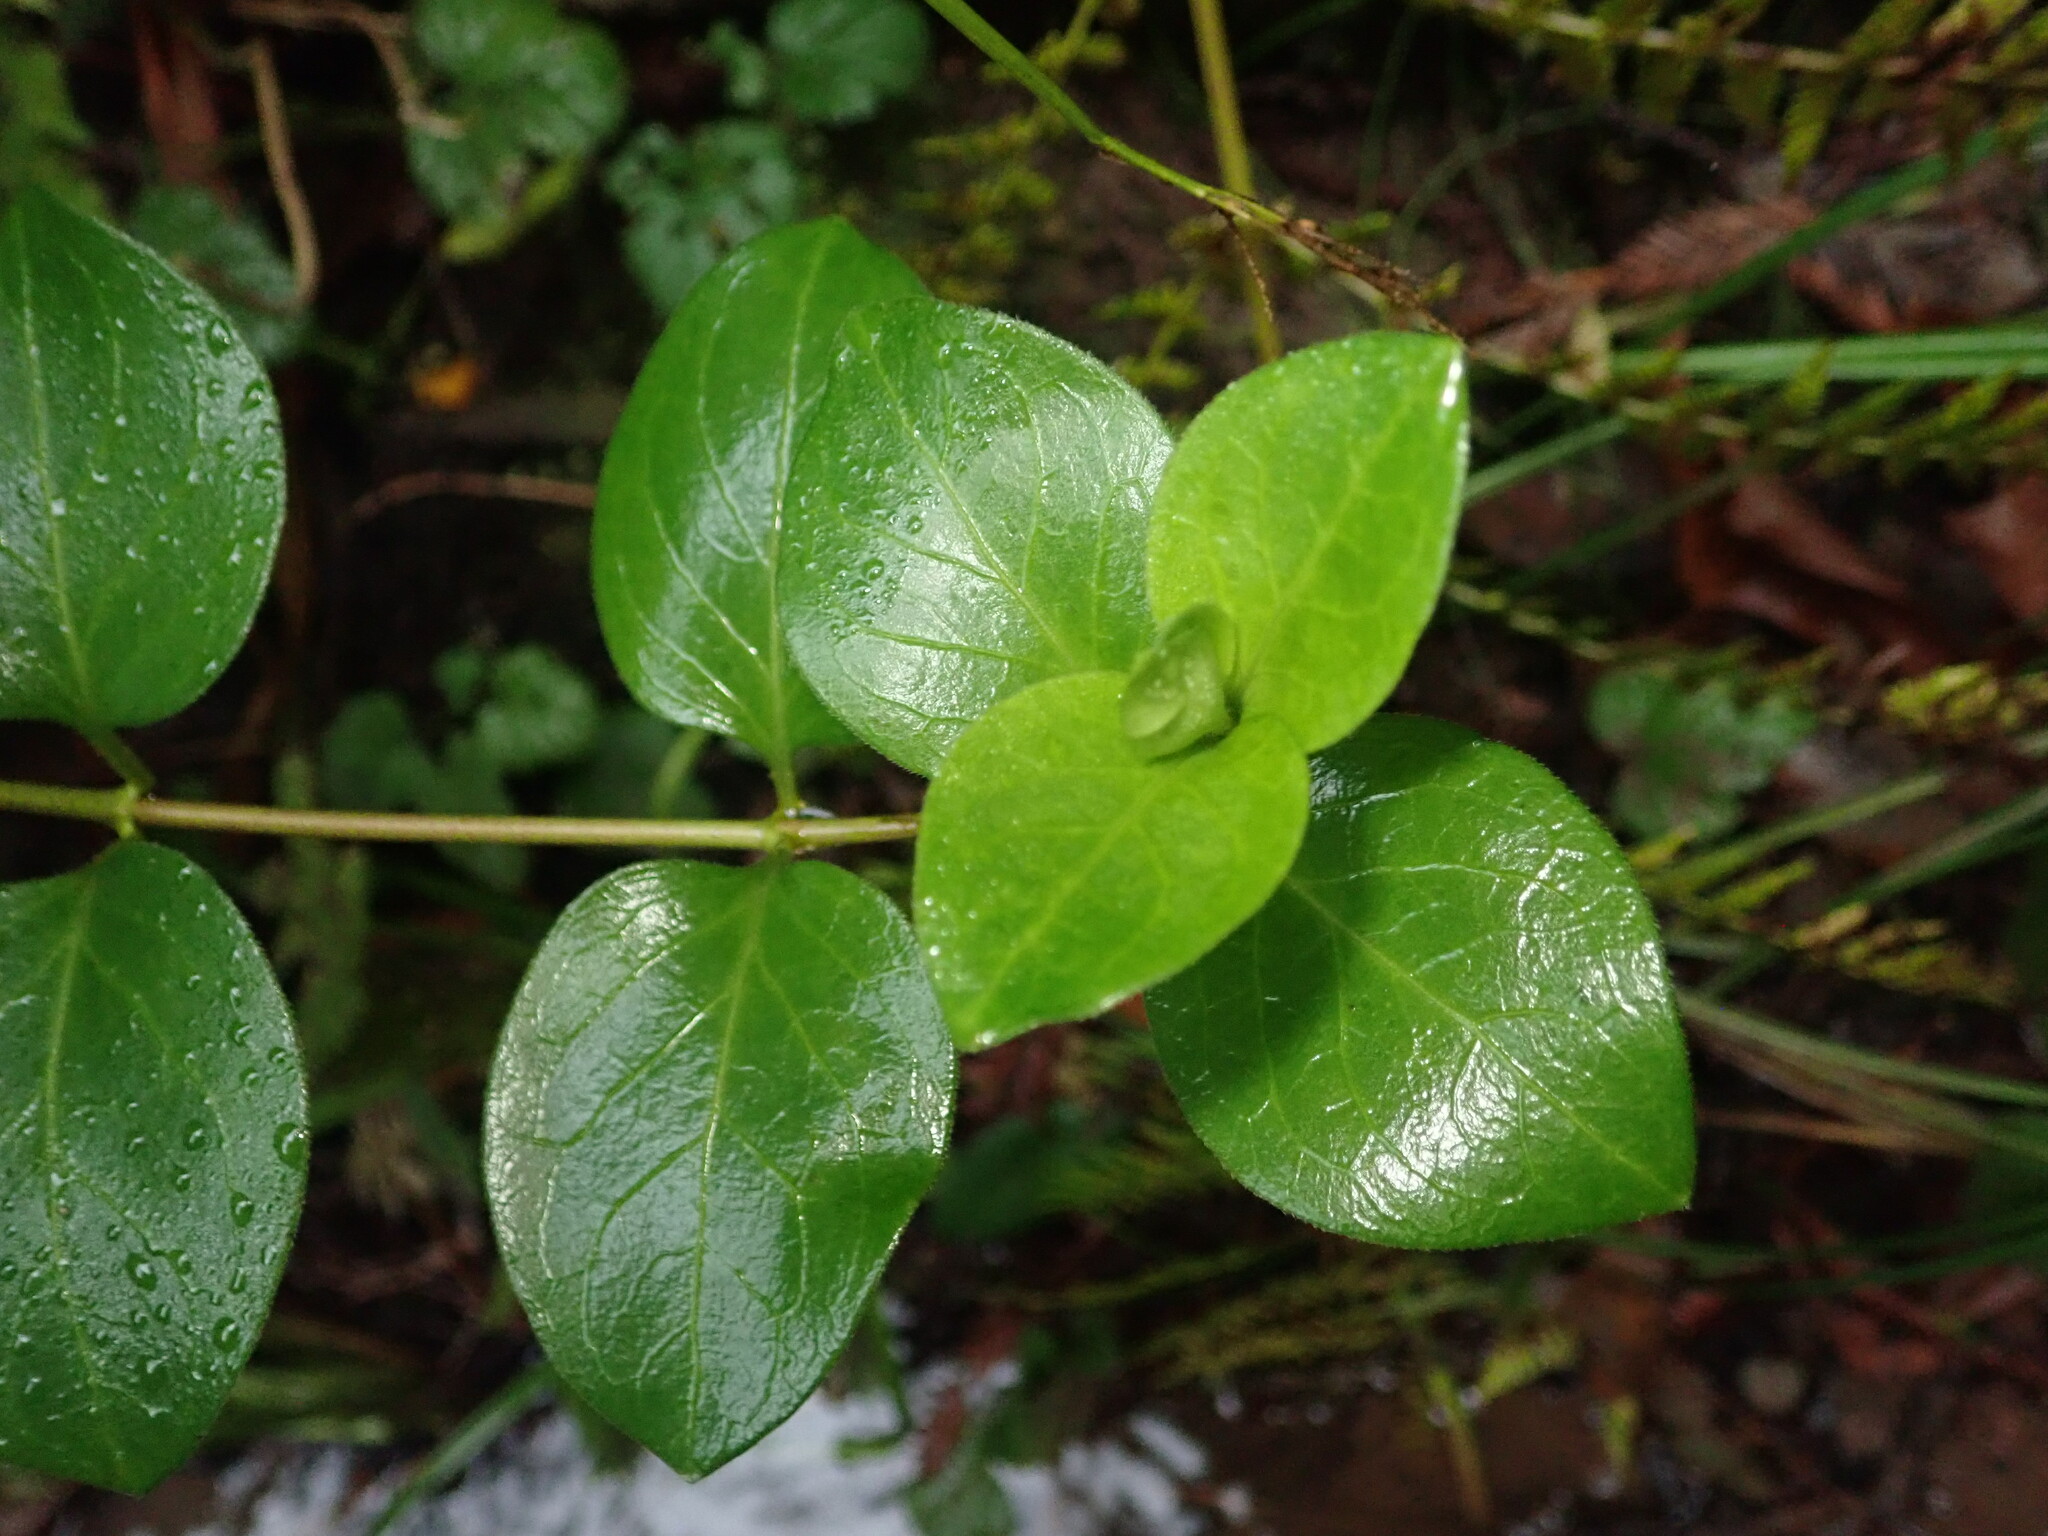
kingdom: Plantae
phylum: Tracheophyta
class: Magnoliopsida
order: Gentianales
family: Apocynaceae
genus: Vinca
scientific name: Vinca major
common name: Greater periwinkle
